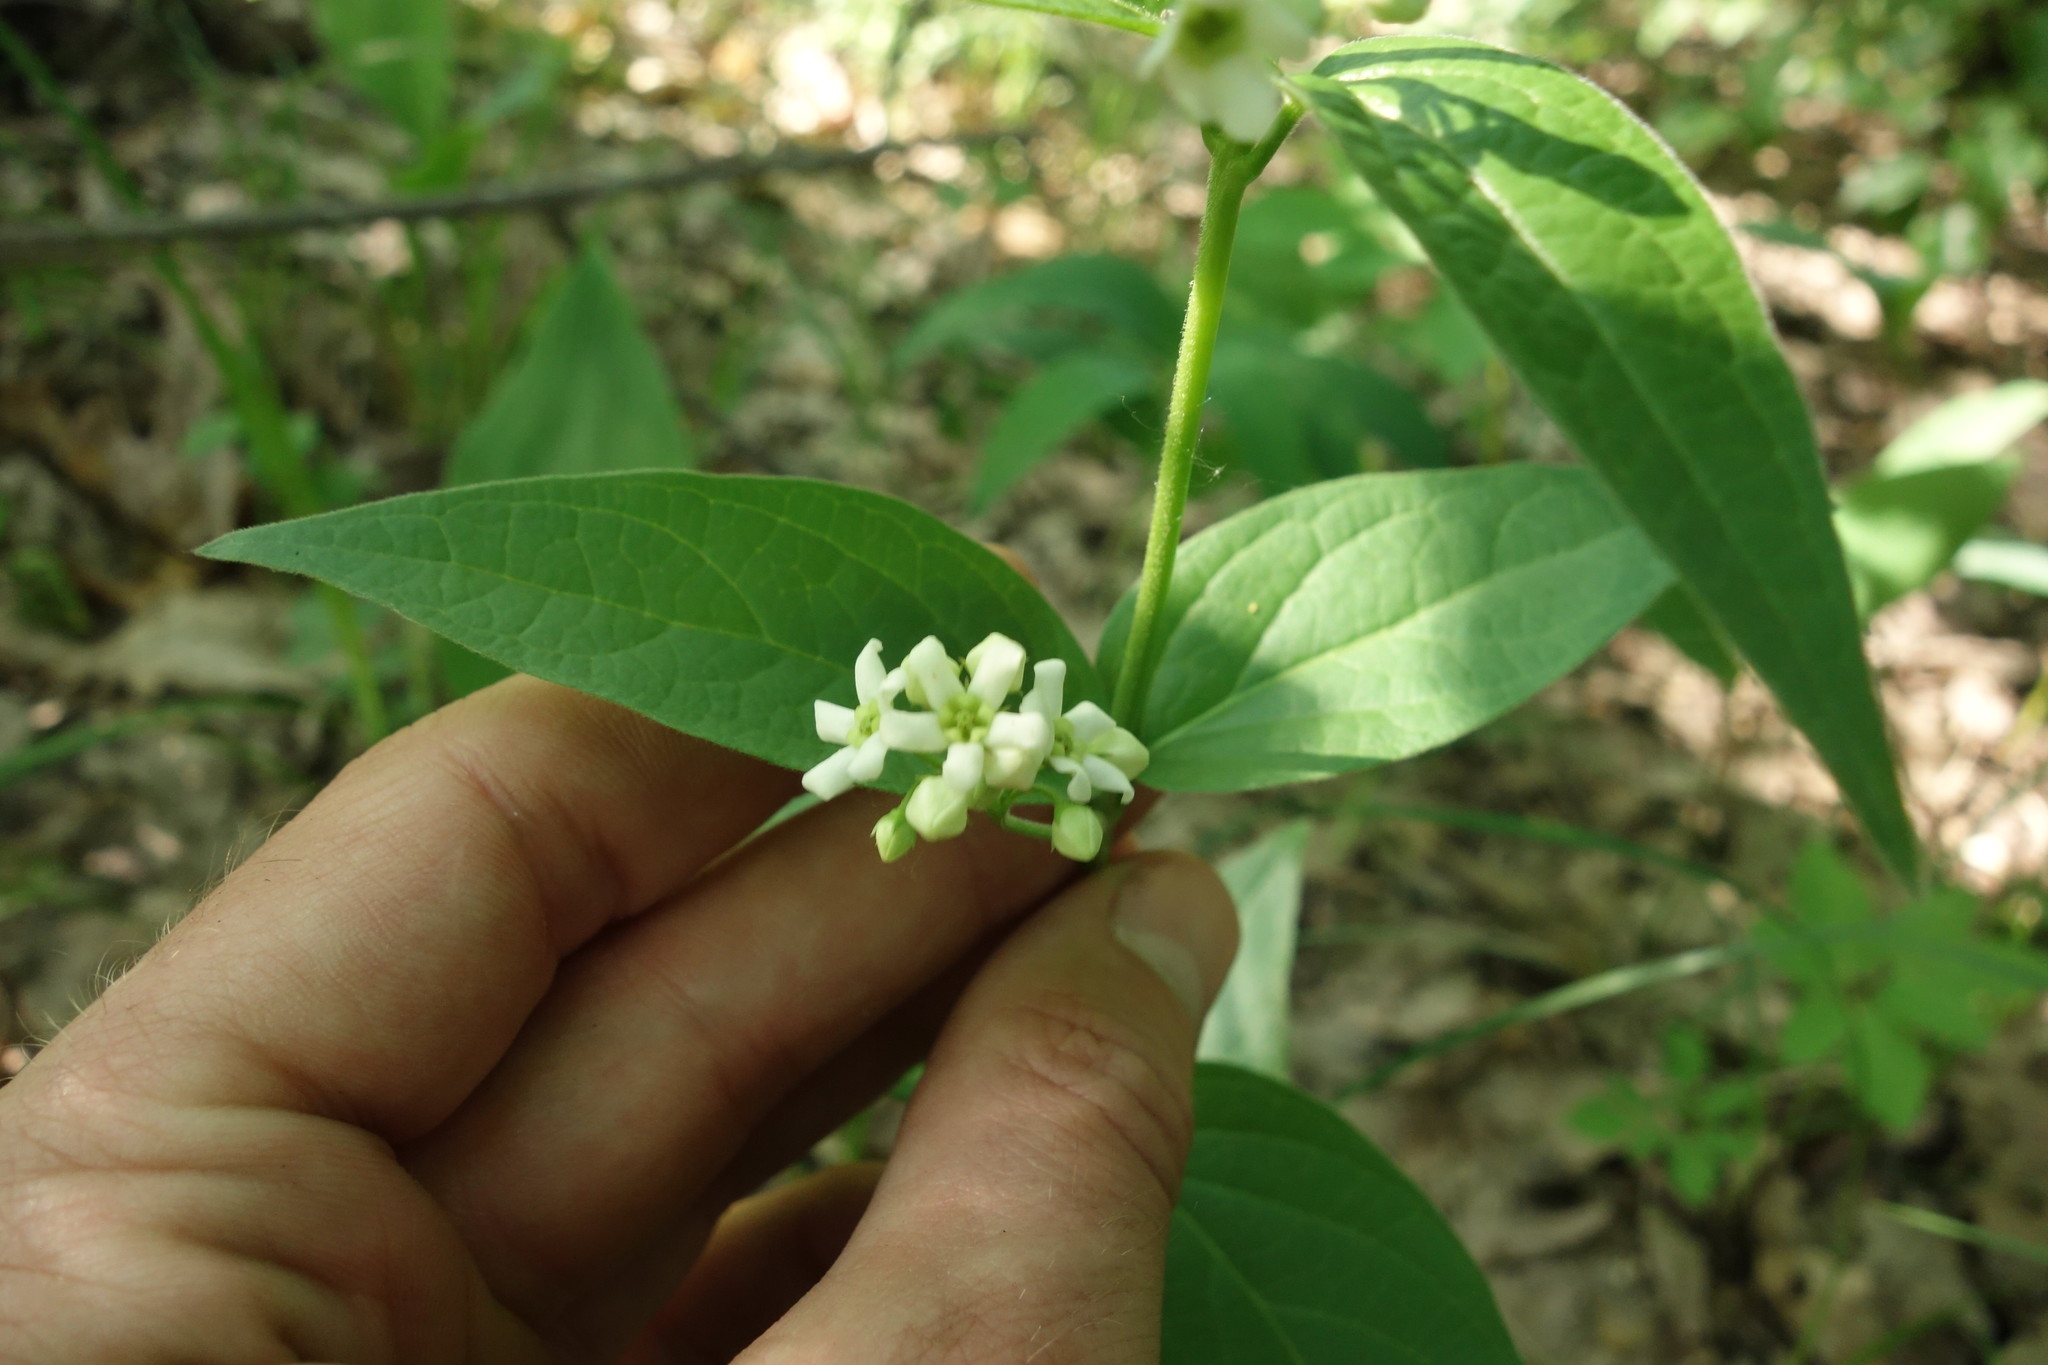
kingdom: Plantae
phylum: Tracheophyta
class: Magnoliopsida
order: Gentianales
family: Apocynaceae
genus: Vincetoxicum
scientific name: Vincetoxicum hirundinaria
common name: White swallowwort
